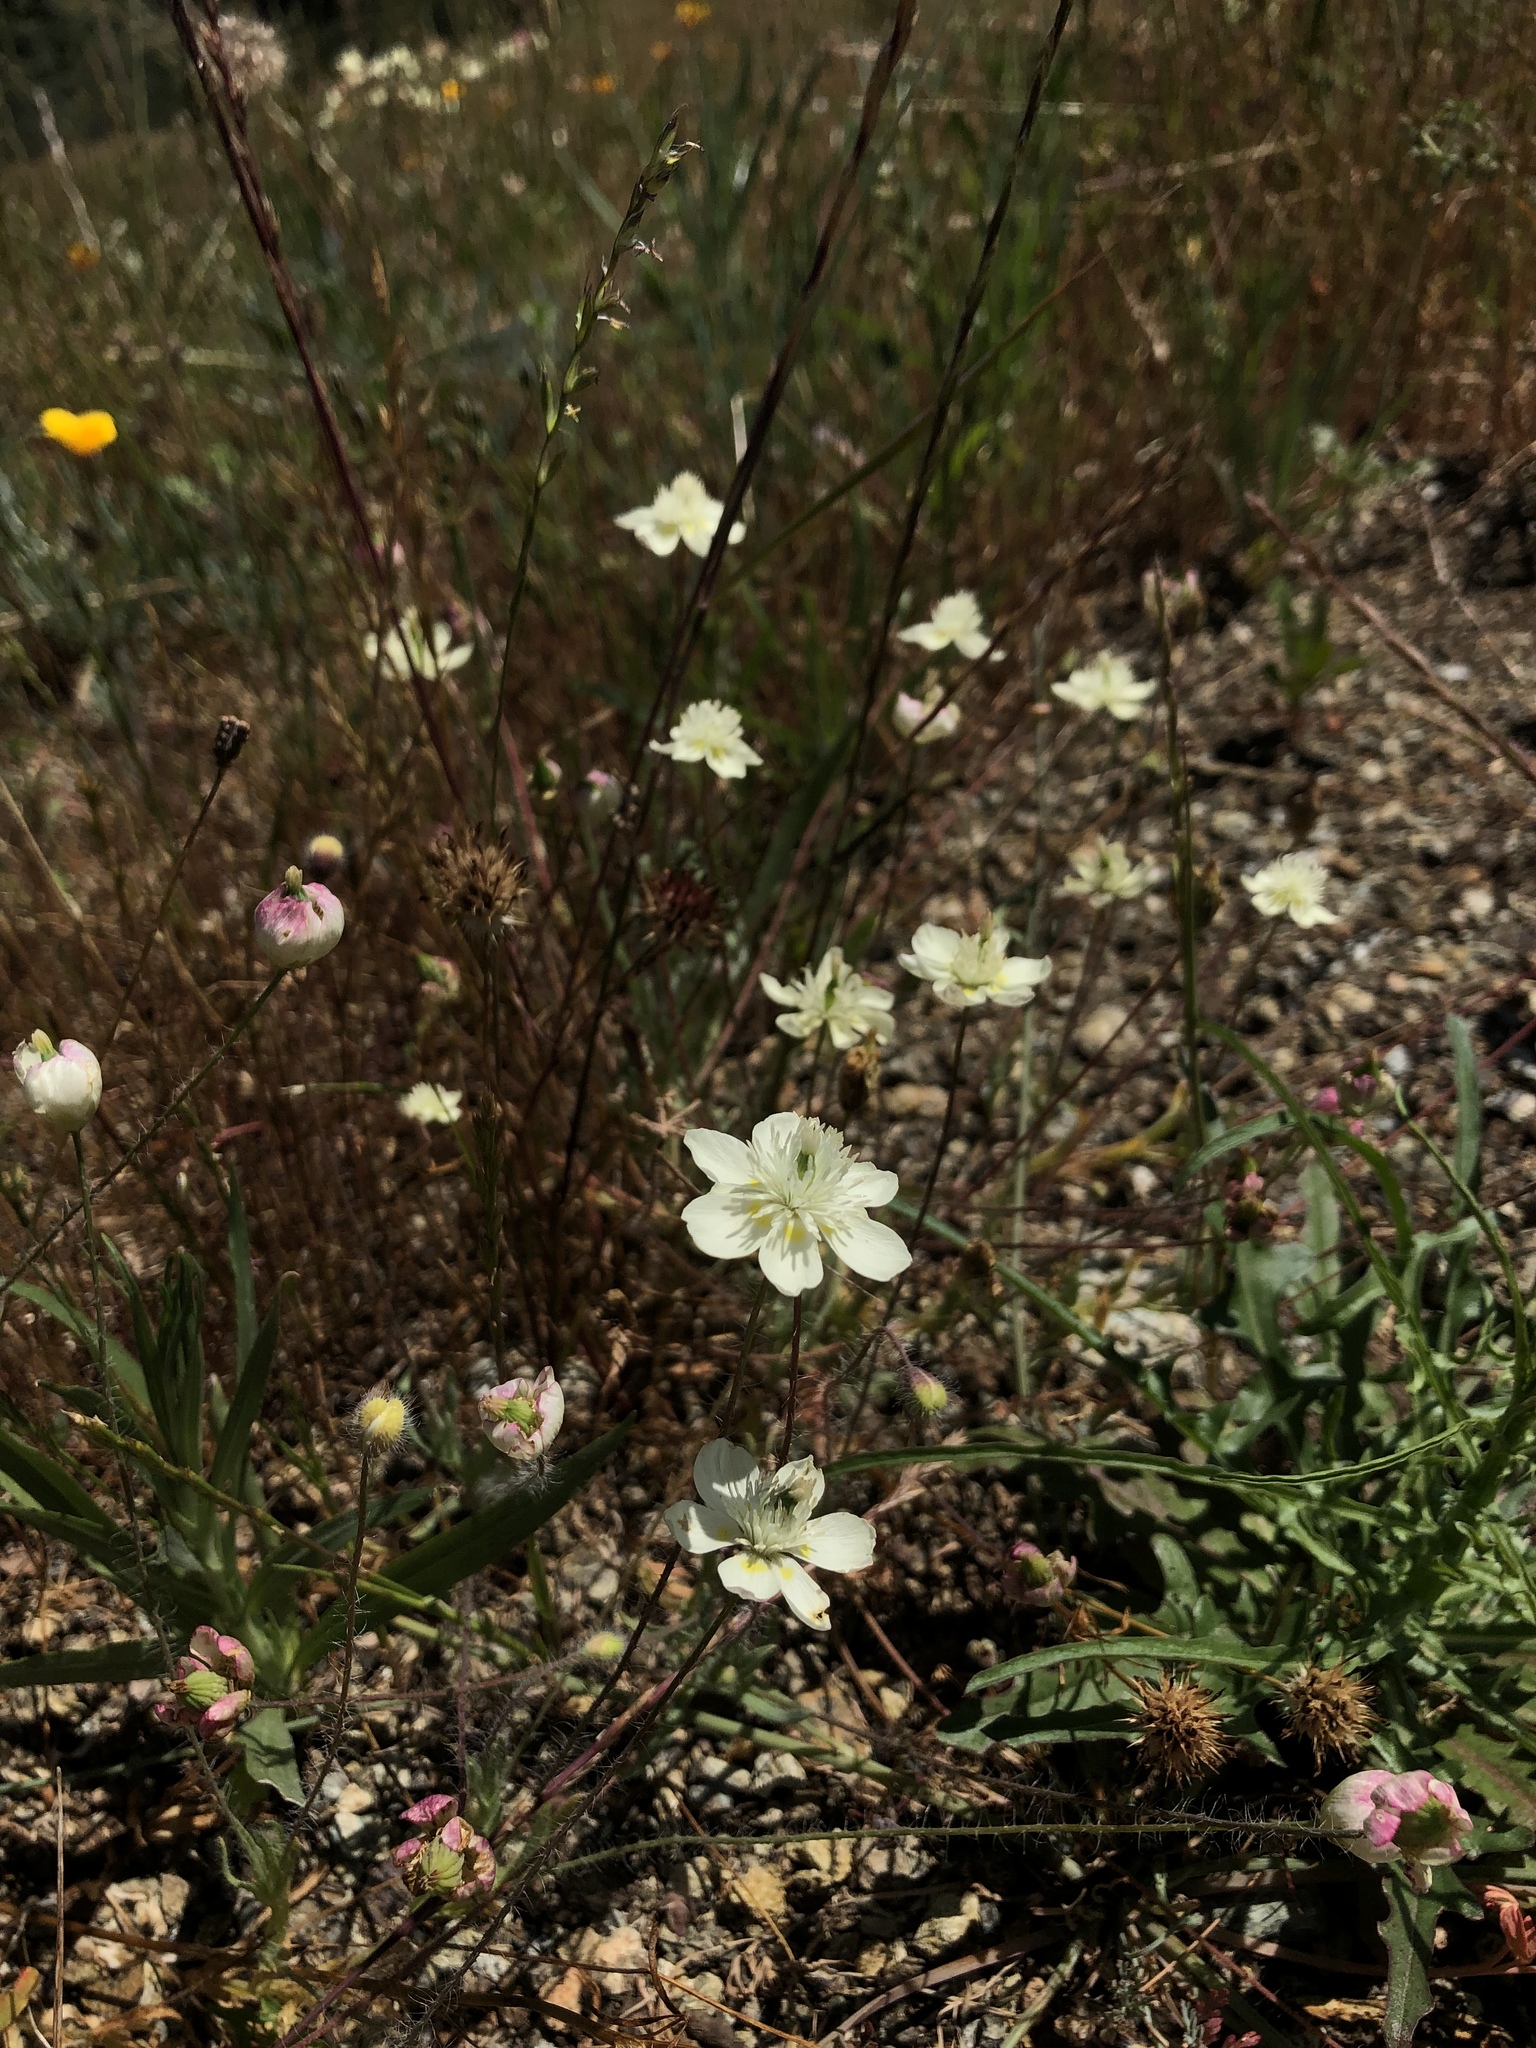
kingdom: Plantae
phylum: Tracheophyta
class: Magnoliopsida
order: Ranunculales
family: Papaveraceae
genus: Platystemon
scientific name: Platystemon californicus
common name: Cream-cups
